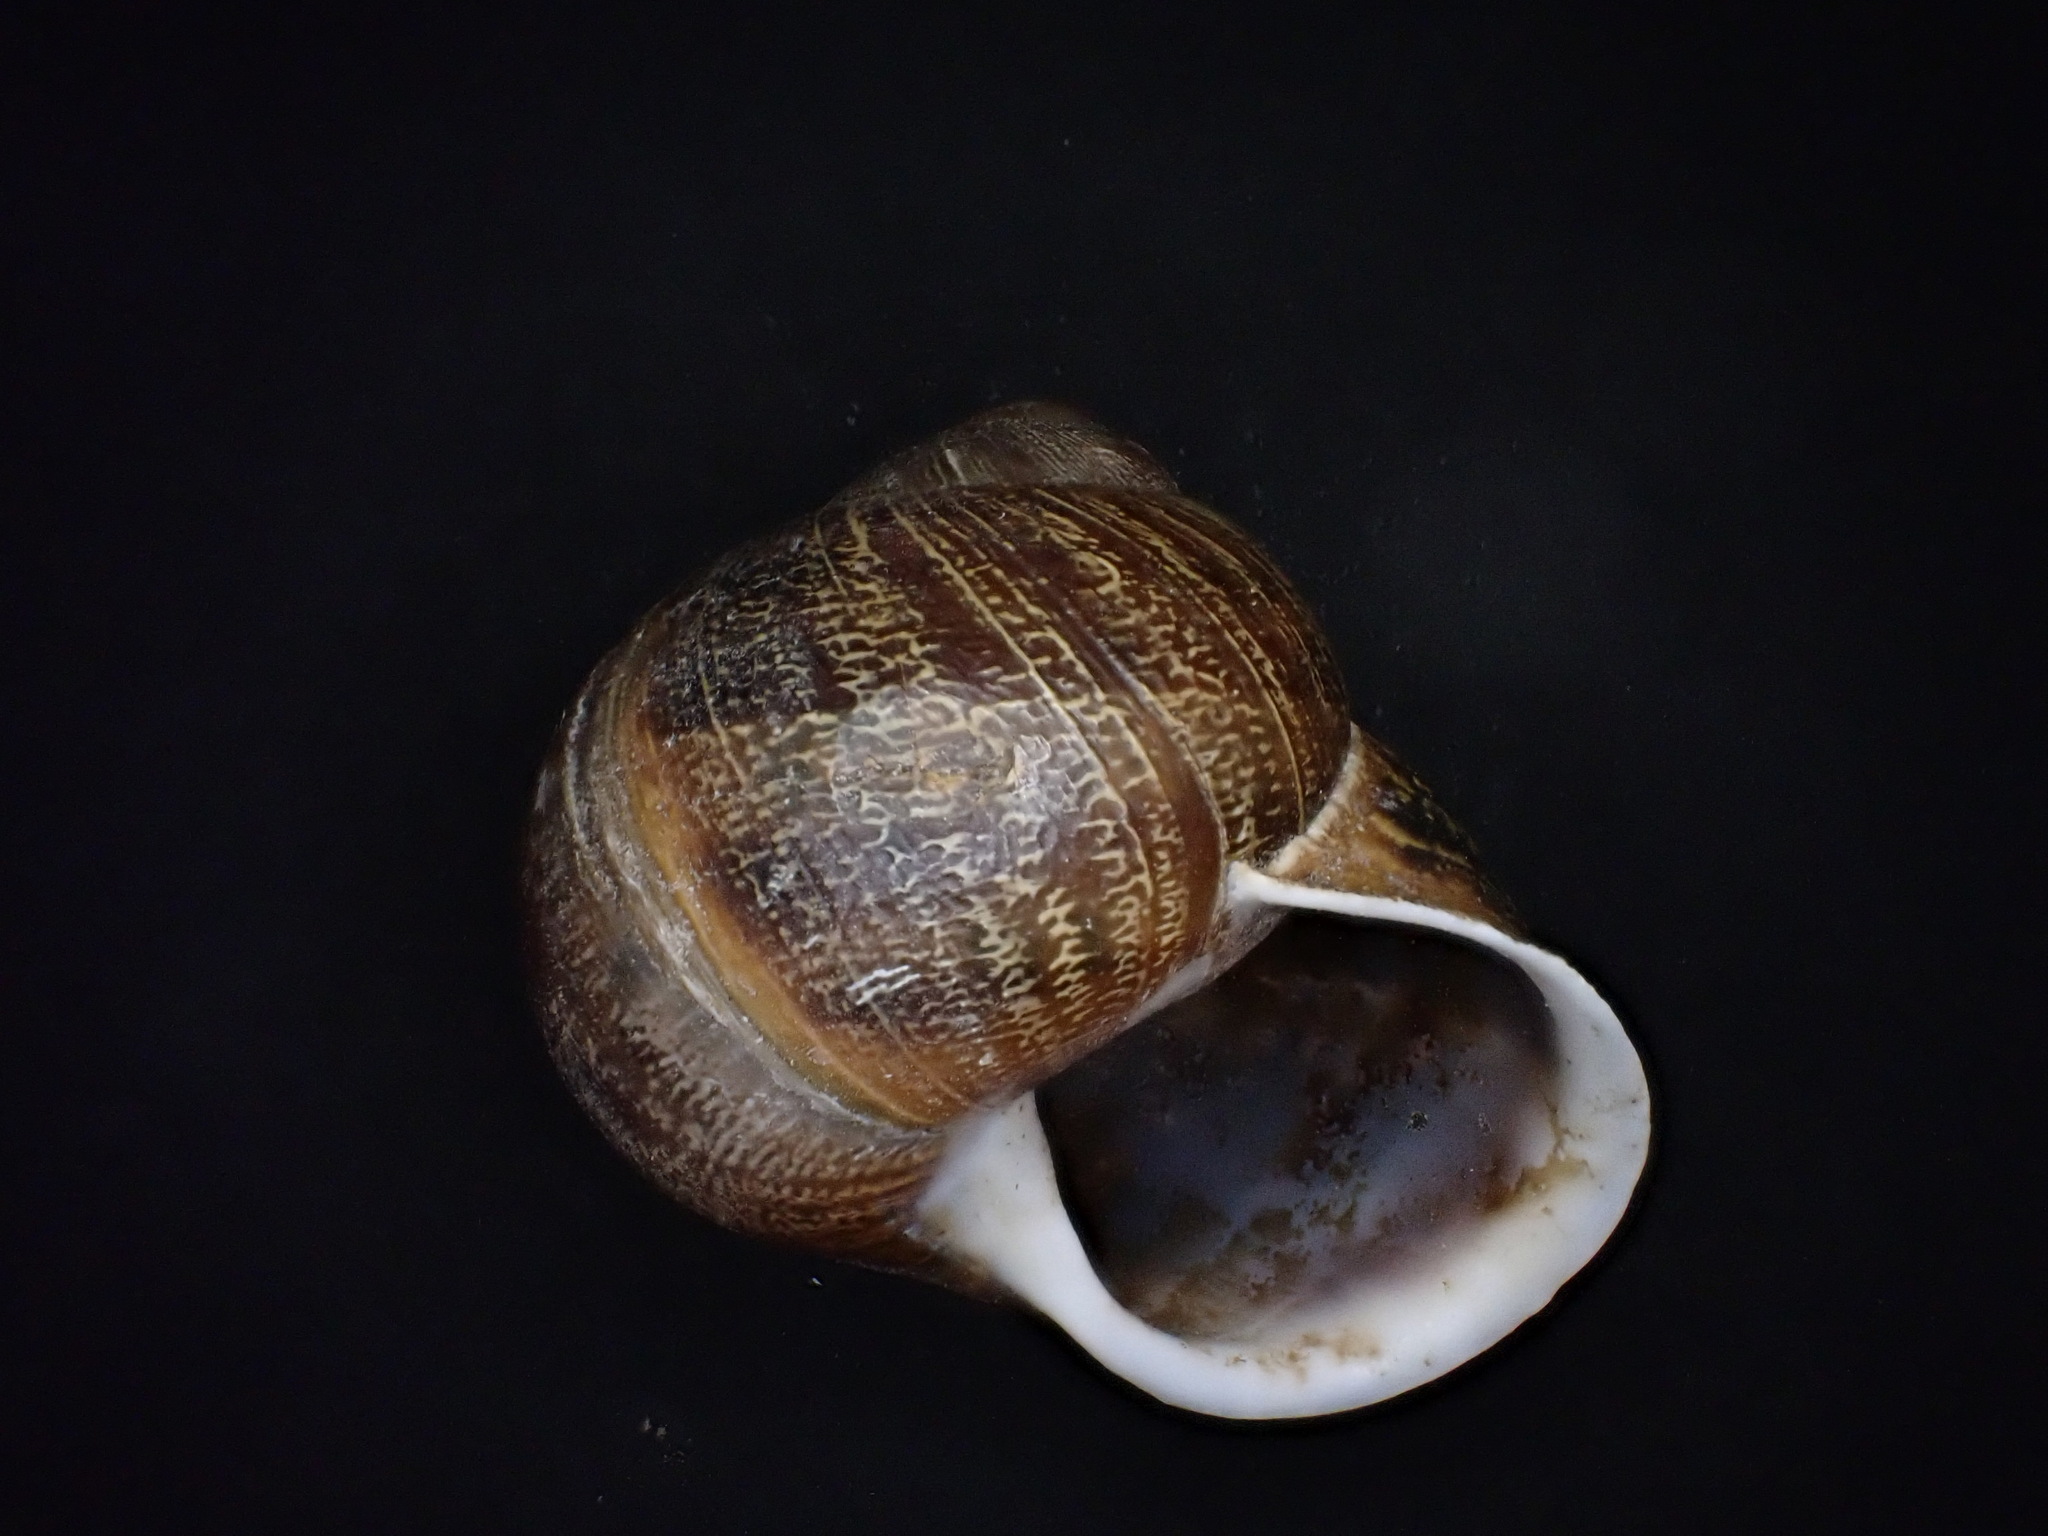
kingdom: Animalia
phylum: Mollusca
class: Gastropoda
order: Stylommatophora
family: Helicidae
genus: Cornu
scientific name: Cornu aspersum
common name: Brown garden snail
